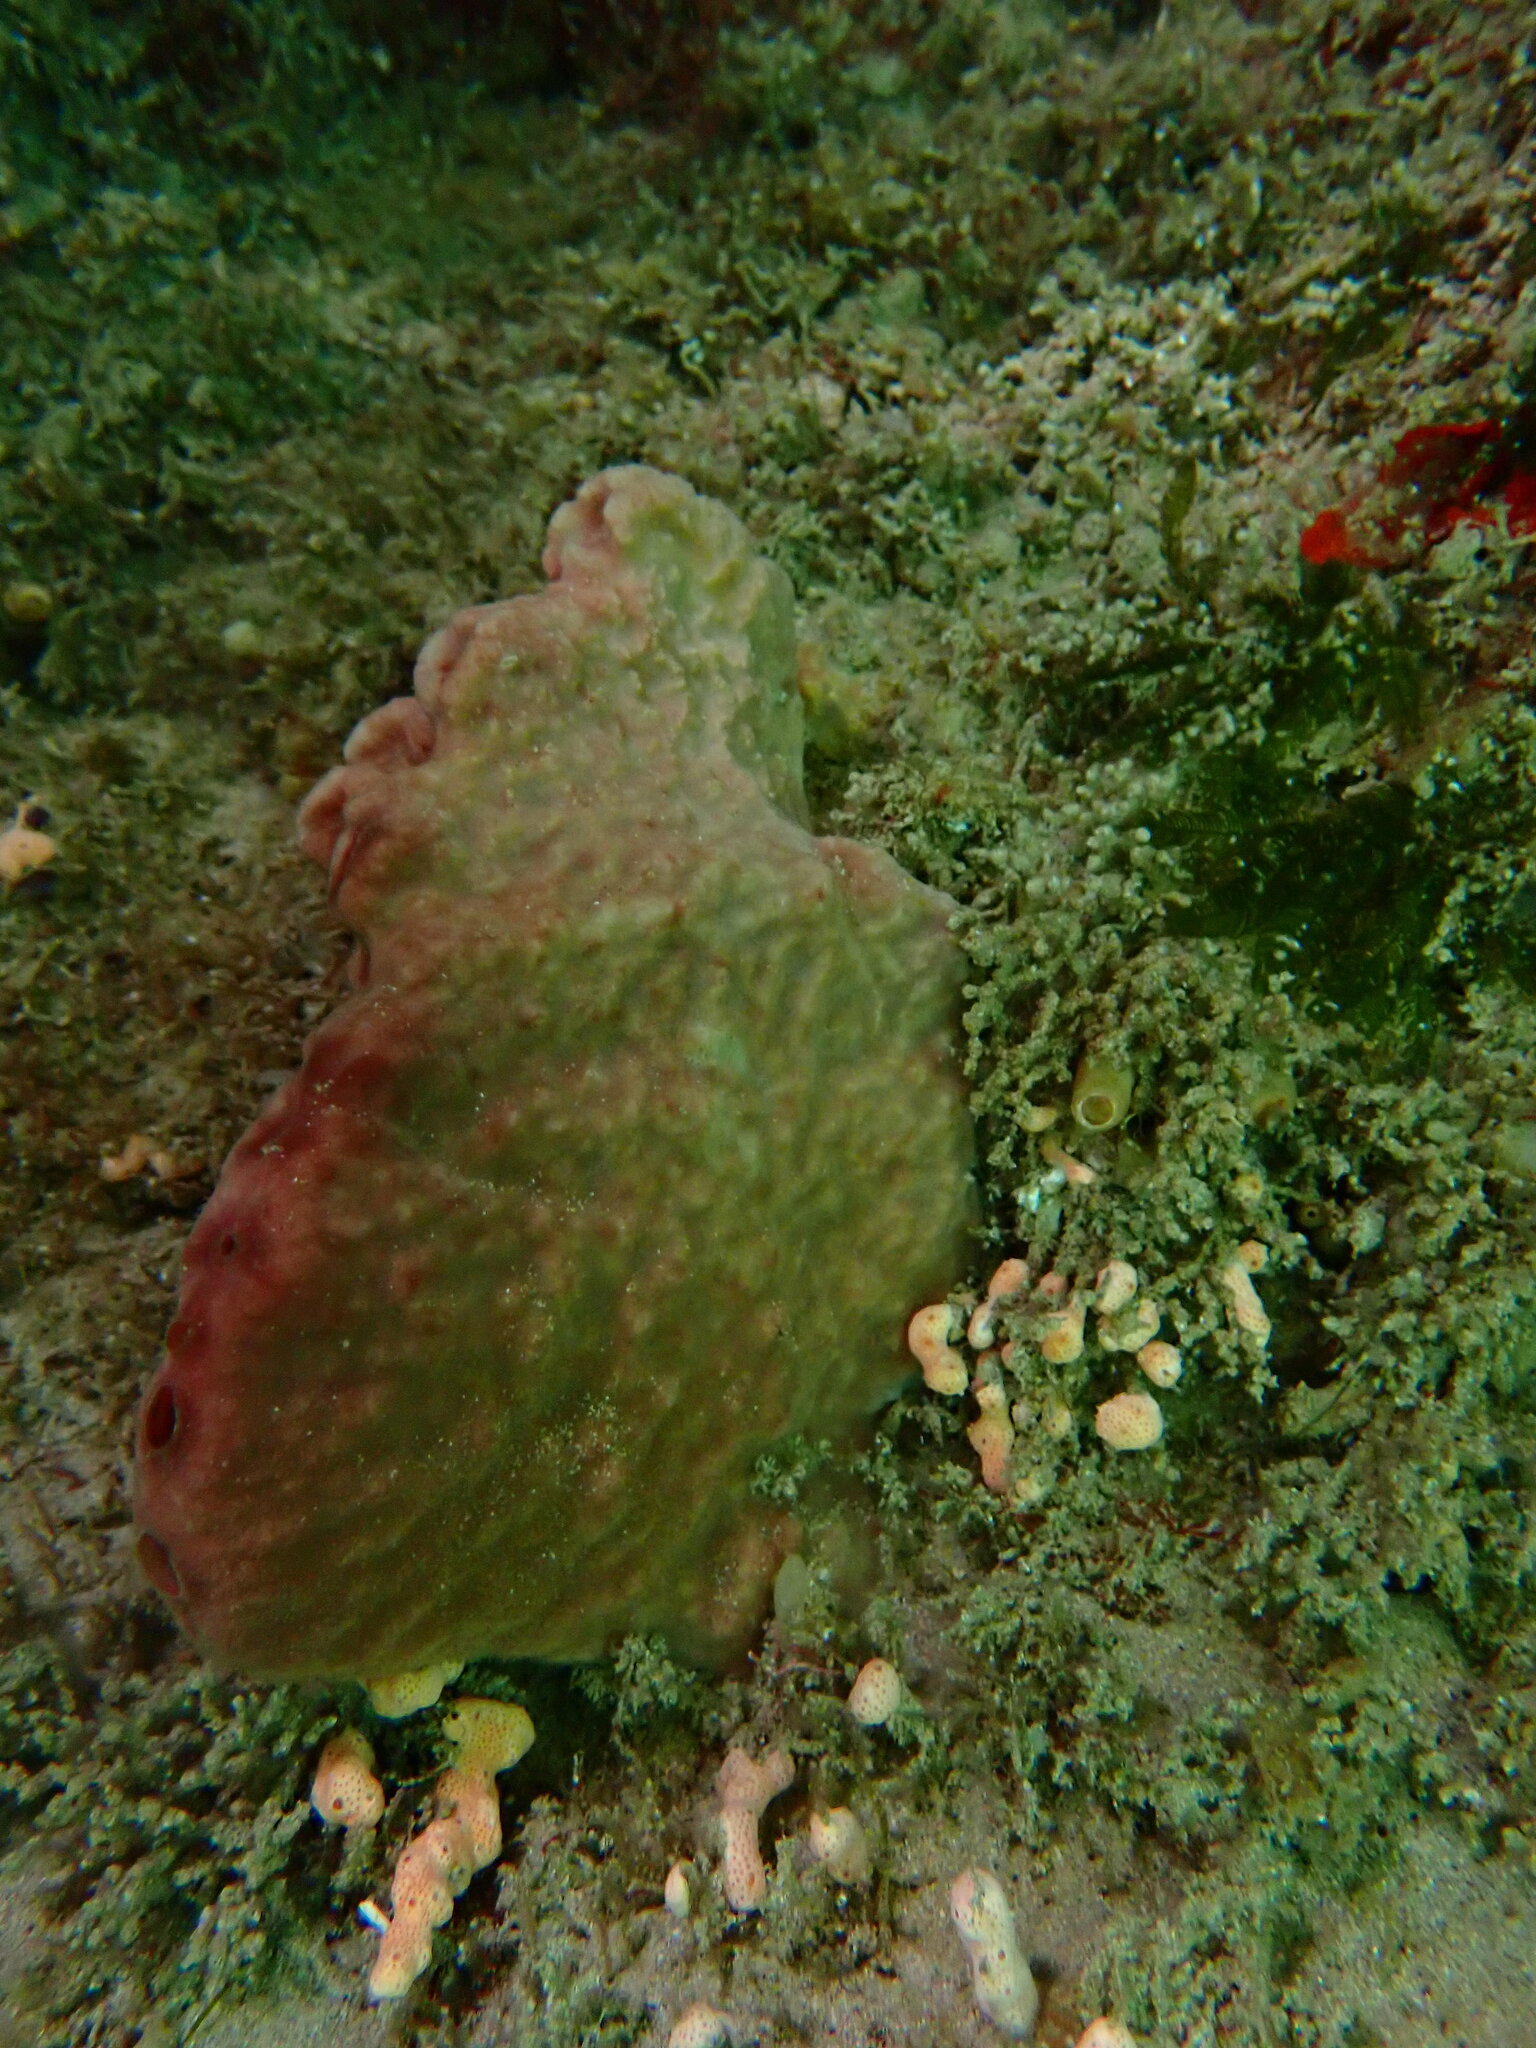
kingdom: Animalia
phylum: Porifera
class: Demospongiae
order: Verongiida
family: Pseudoceratinidae
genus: Pseudoceratina
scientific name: Pseudoceratina durissima
